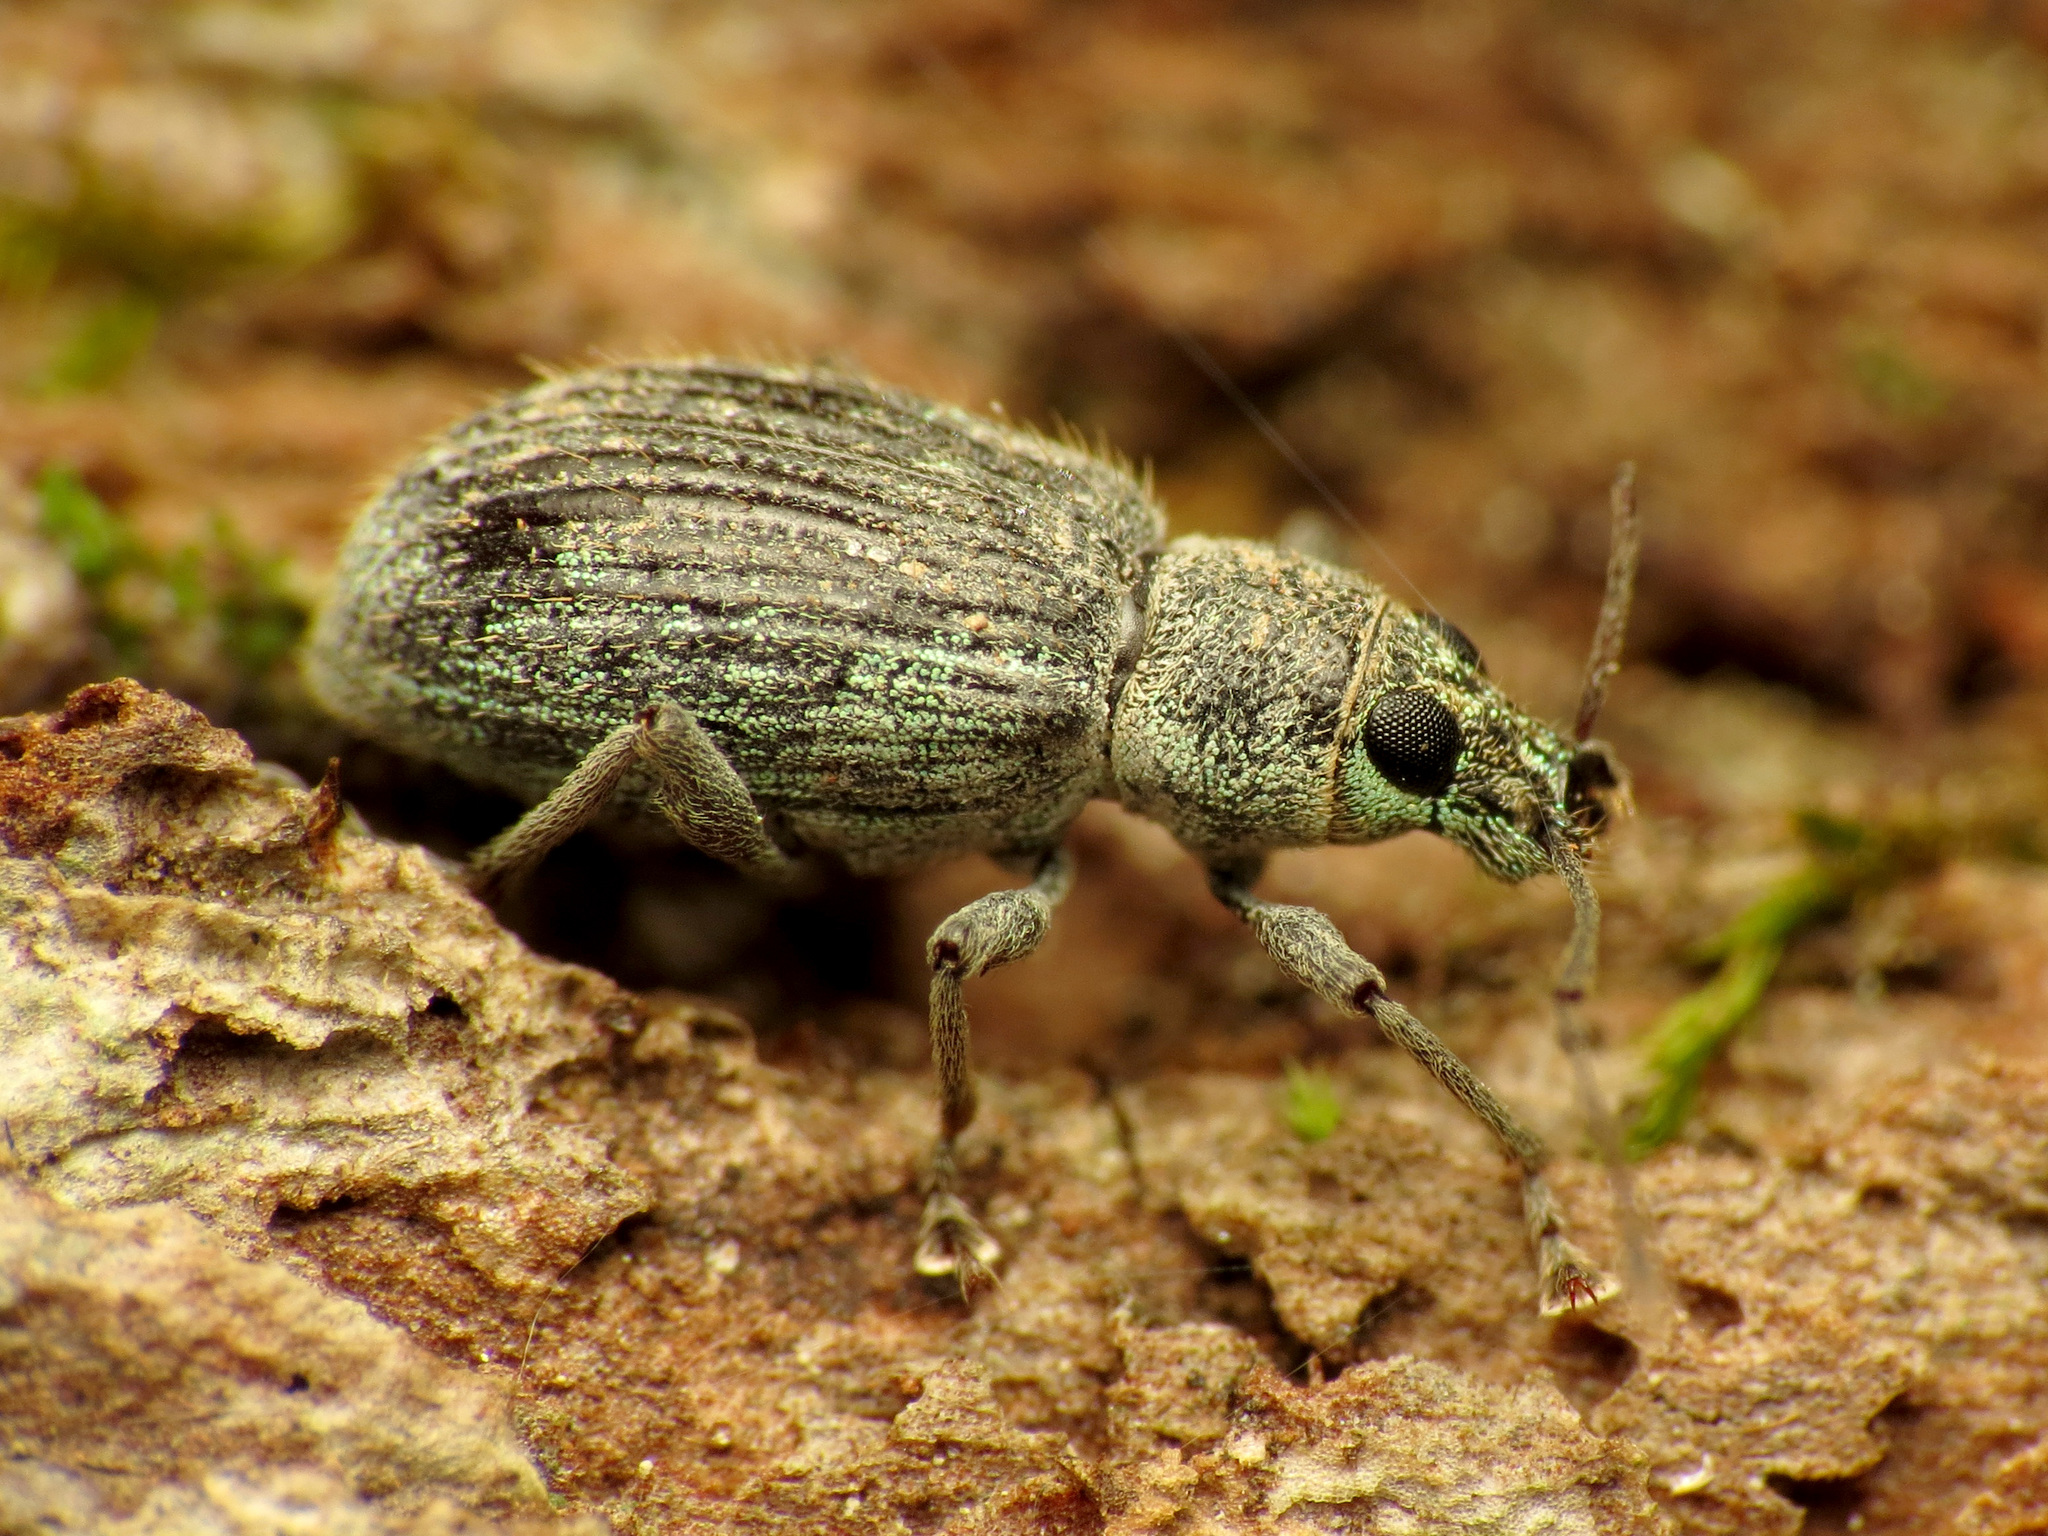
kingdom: Animalia
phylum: Arthropoda
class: Insecta
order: Coleoptera
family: Curculionidae
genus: Cyrtepistomus
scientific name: Cyrtepistomus castaneus
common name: Weevil
